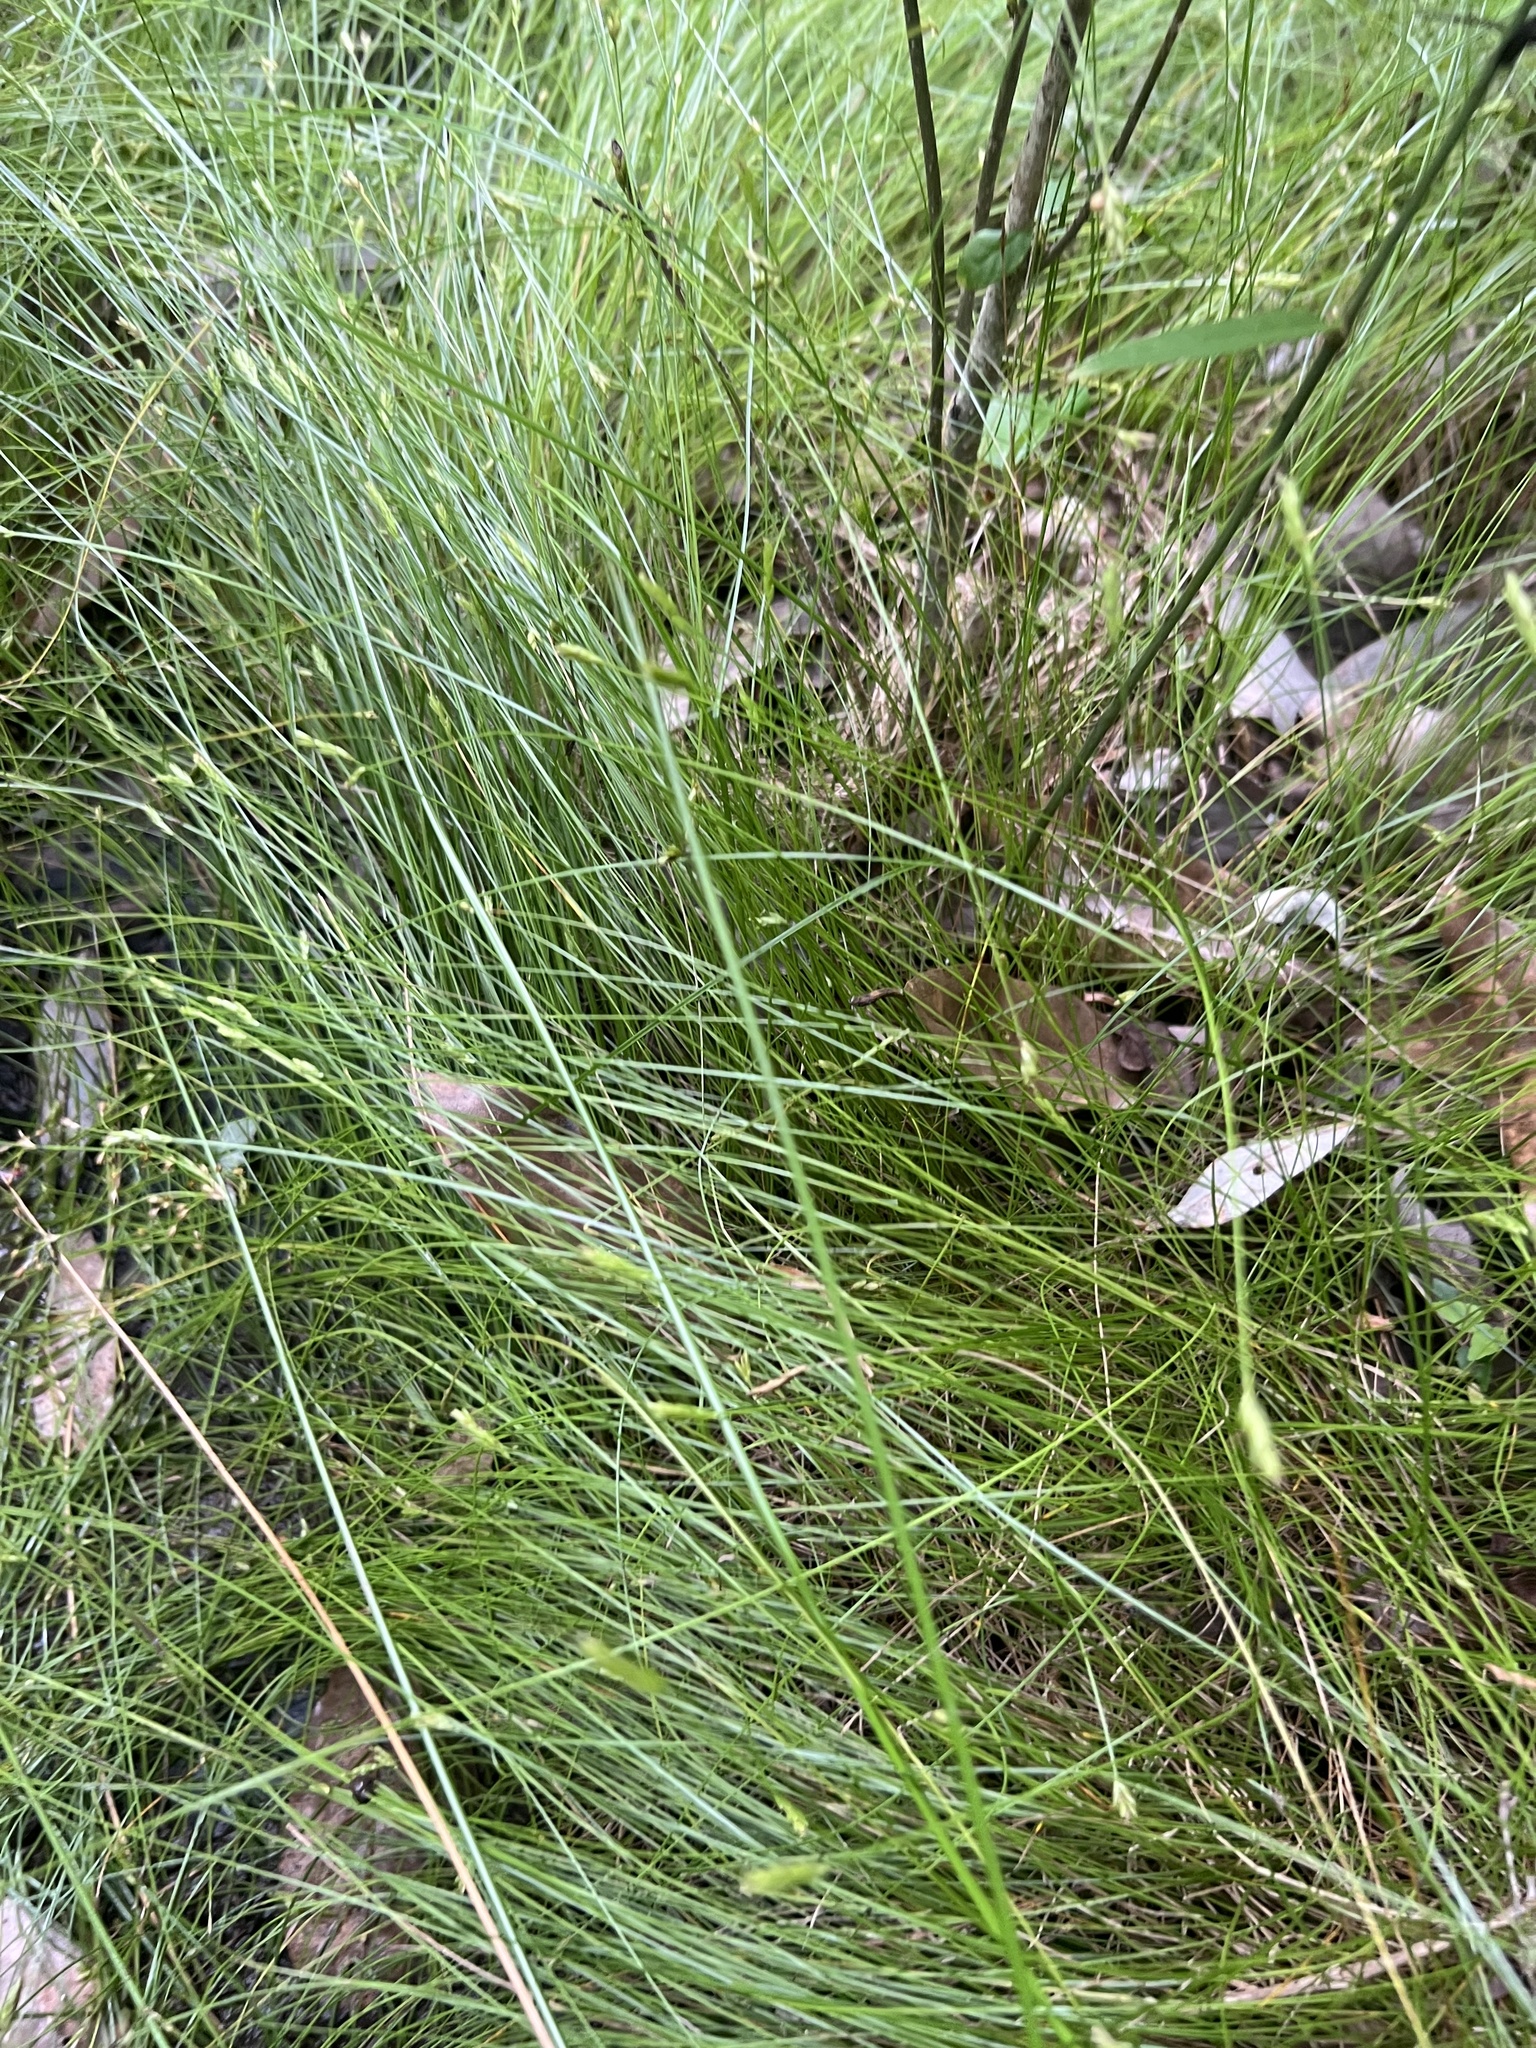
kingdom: Plantae
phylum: Tracheophyta
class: Liliopsida
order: Poales
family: Cyperaceae
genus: Carex
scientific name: Carex leptalea
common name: Bristly-stalked sedge
